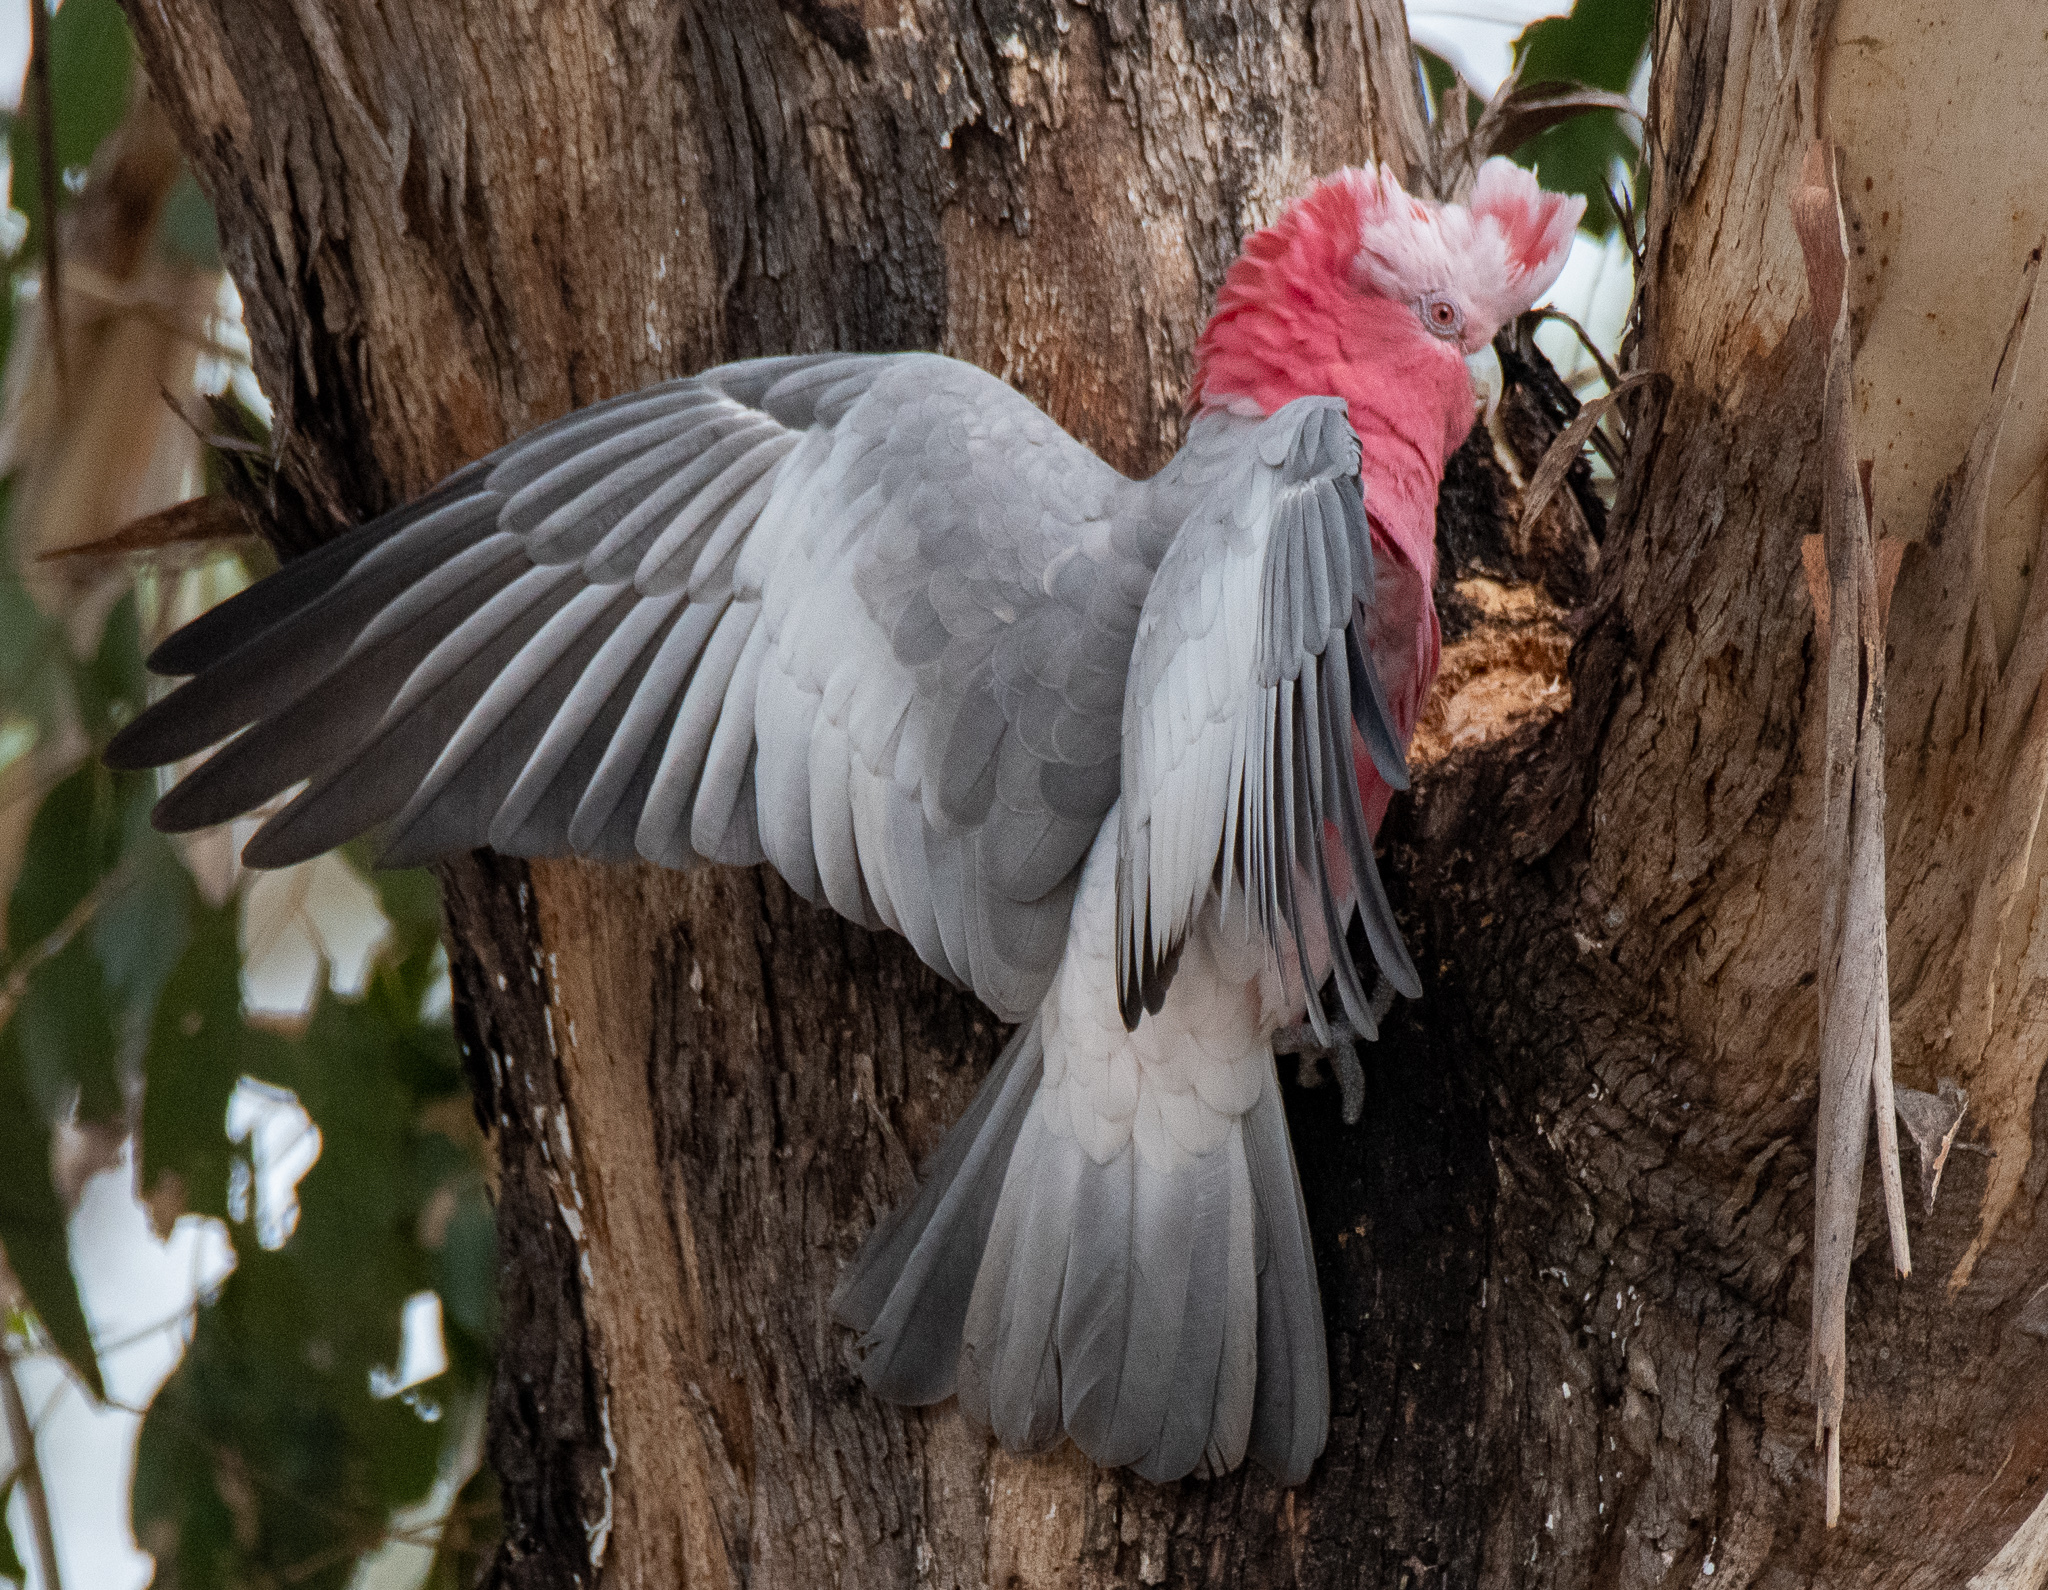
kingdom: Animalia
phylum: Chordata
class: Aves
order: Psittaciformes
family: Psittacidae
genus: Eolophus
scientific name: Eolophus roseicapilla
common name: Galah
